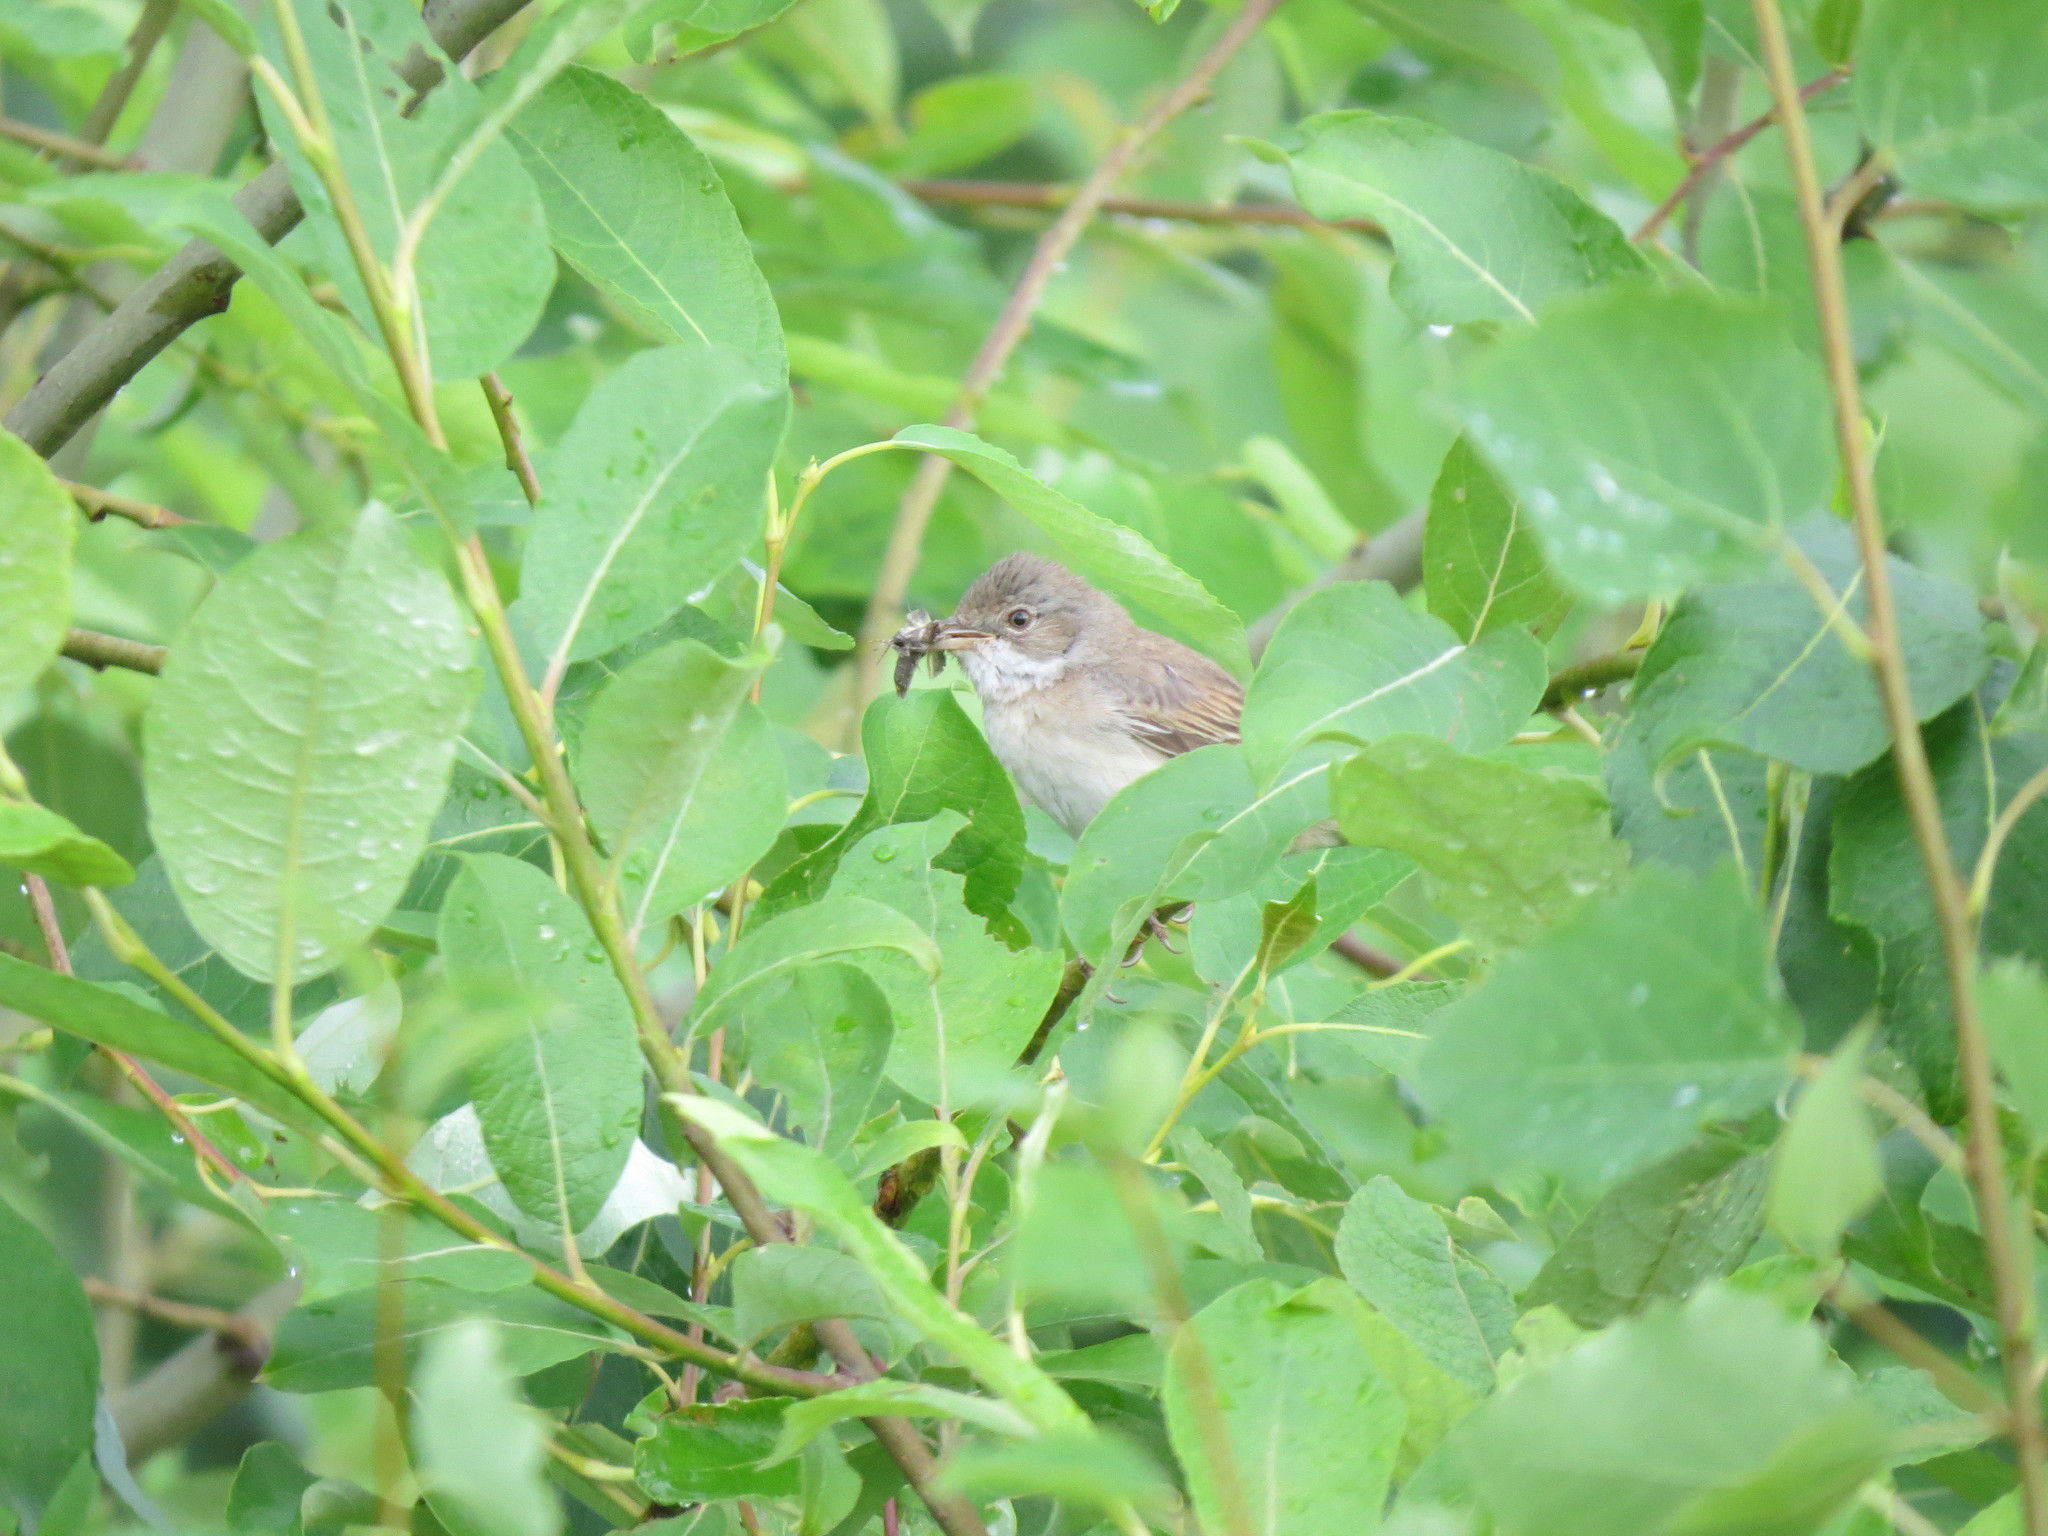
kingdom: Animalia
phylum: Chordata
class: Aves
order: Passeriformes
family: Sylviidae
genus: Sylvia
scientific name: Sylvia communis
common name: Common whitethroat
